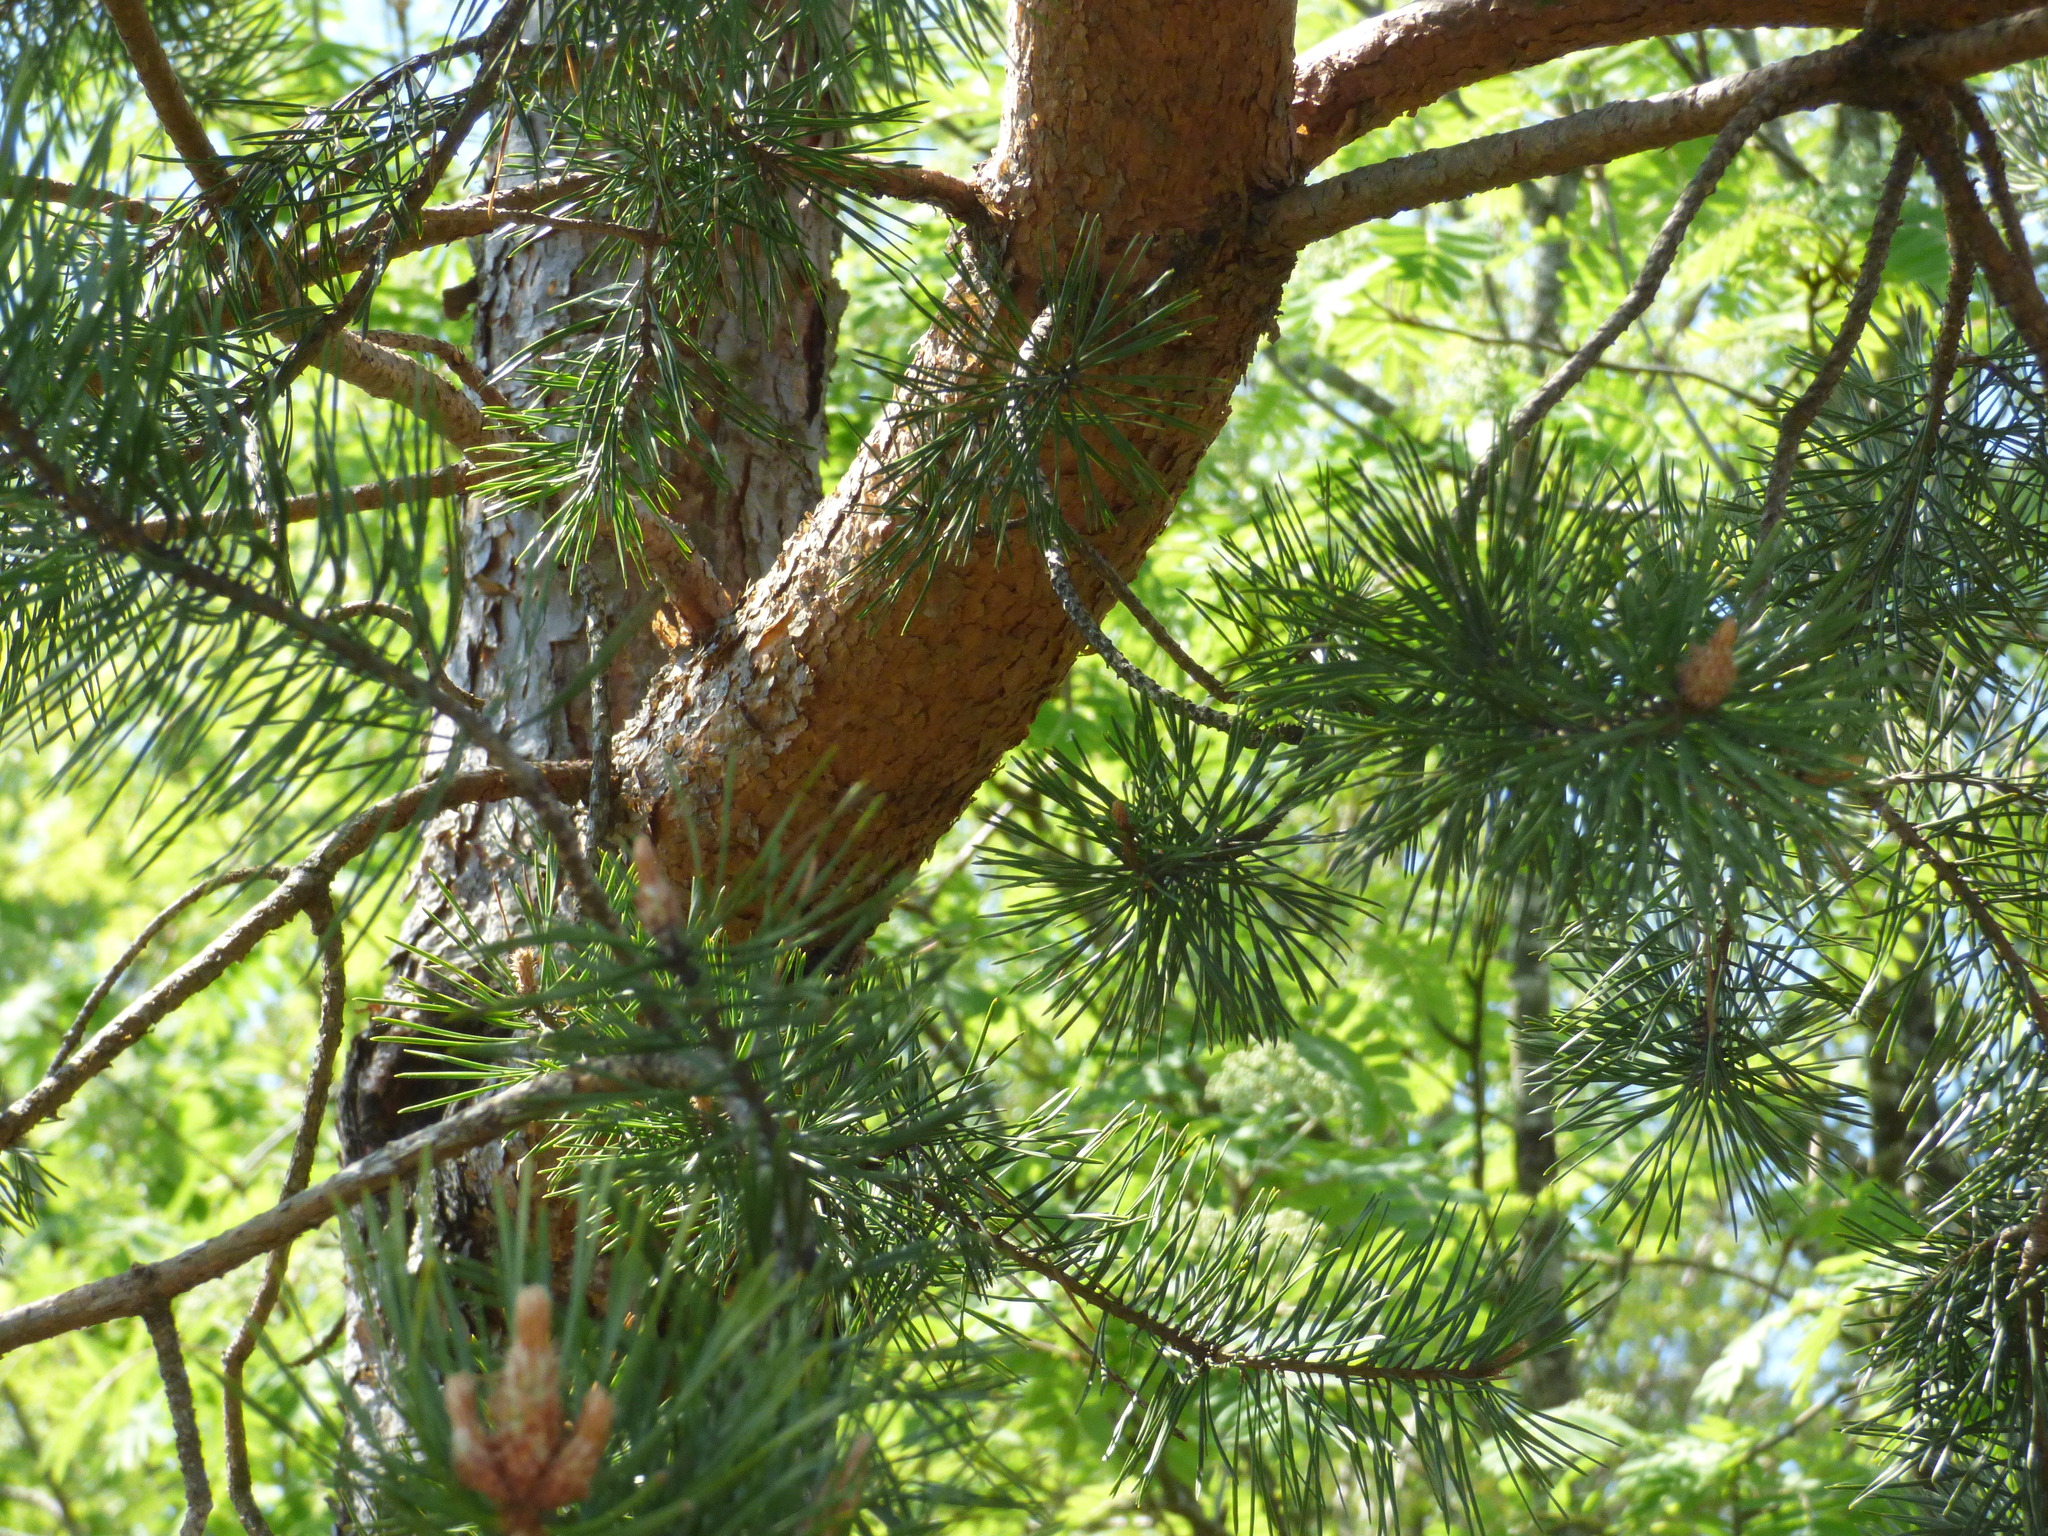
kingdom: Plantae
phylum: Tracheophyta
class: Pinopsida
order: Pinales
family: Pinaceae
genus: Pinus
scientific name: Pinus sylvestris
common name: Scots pine
